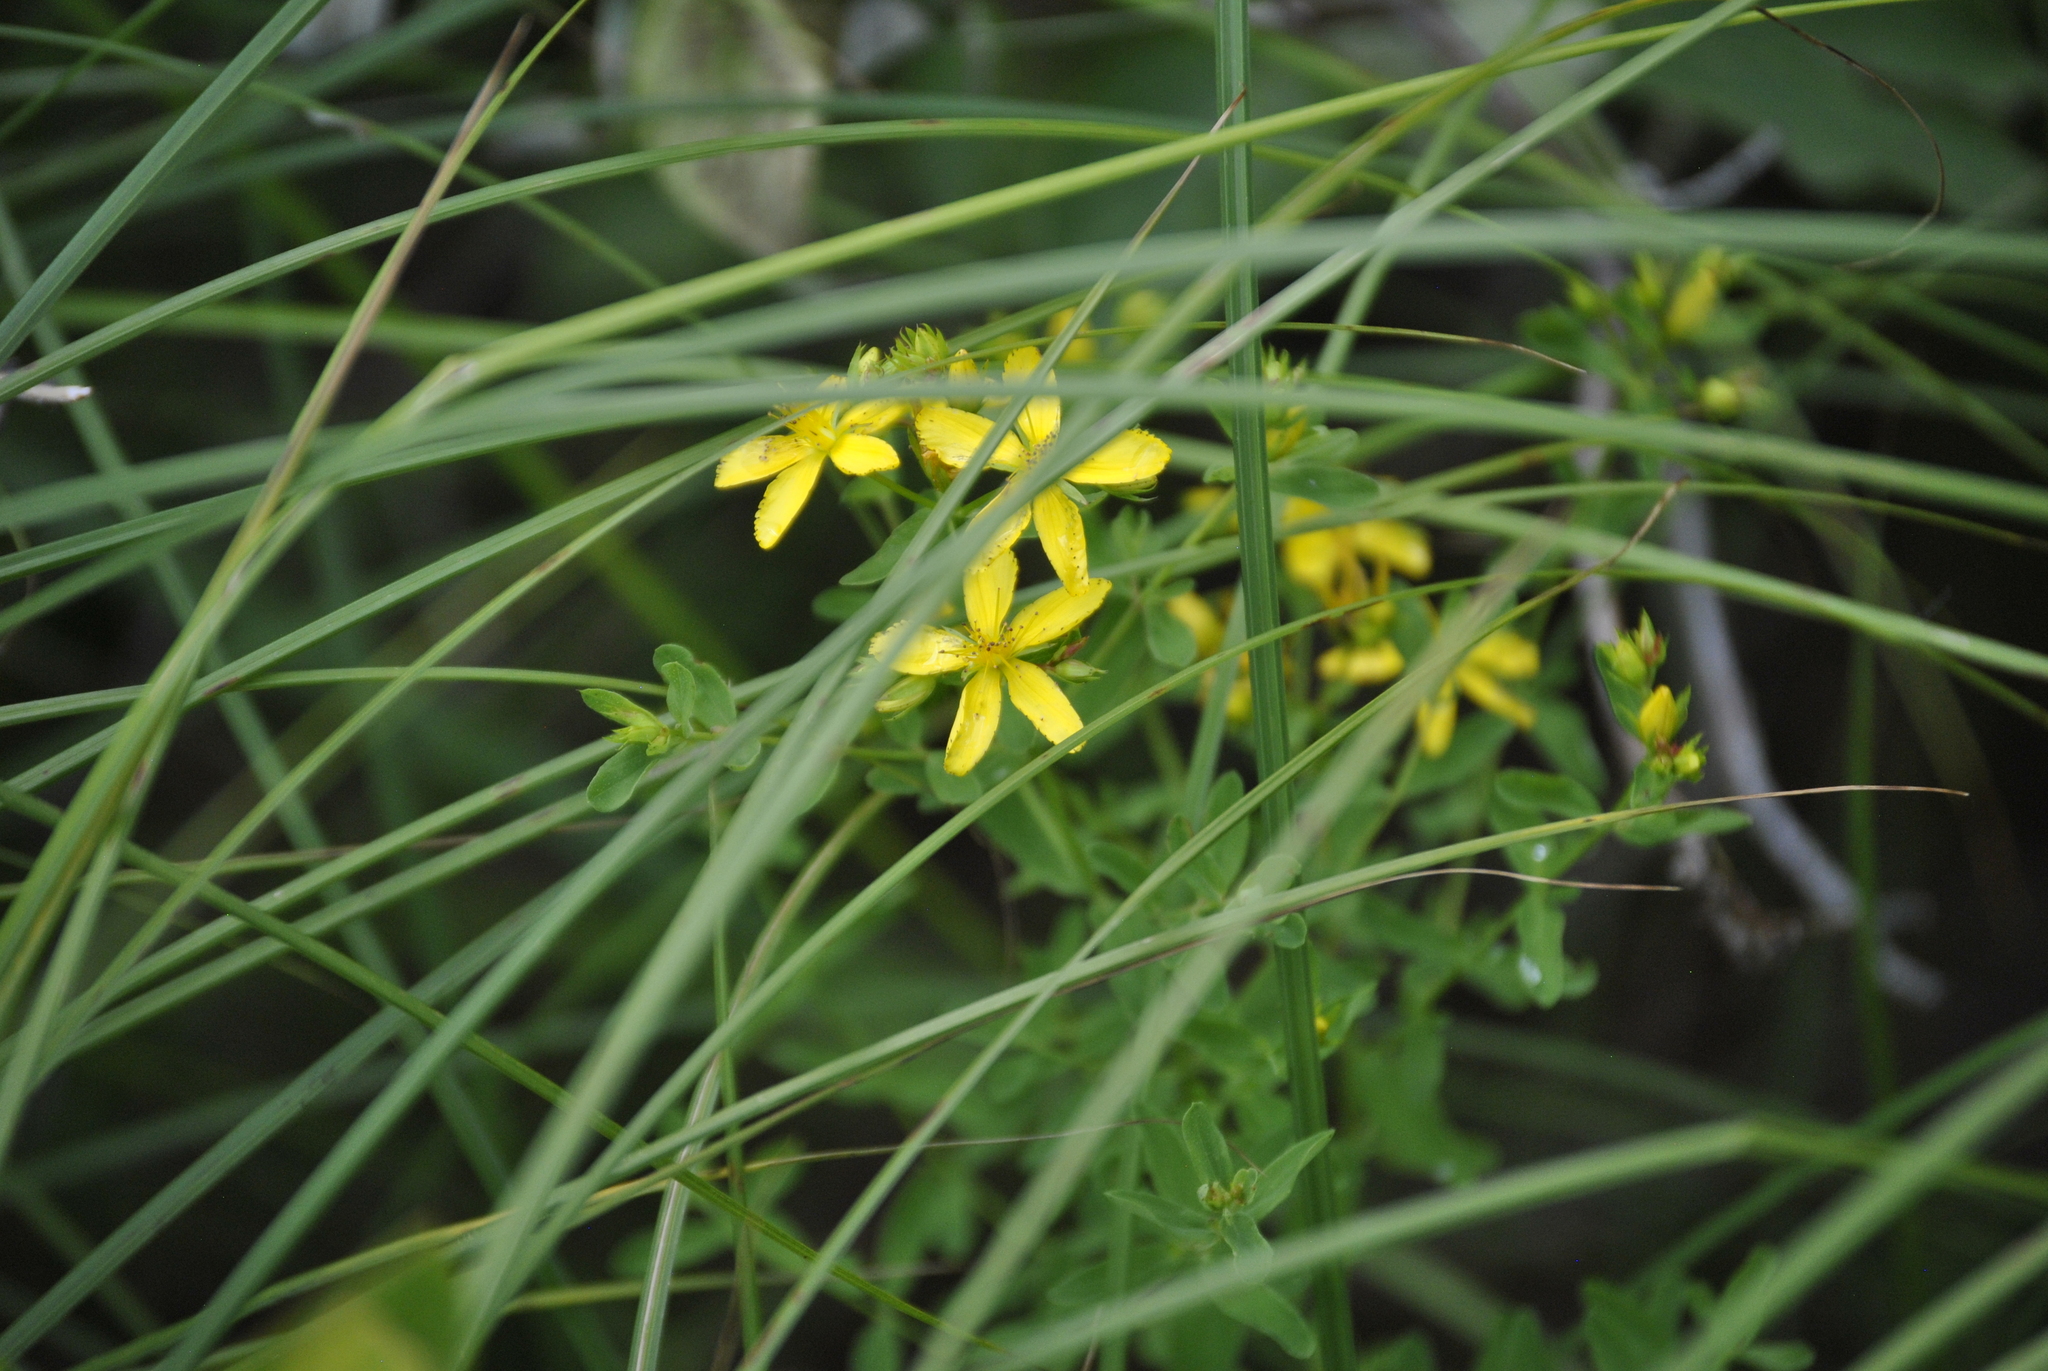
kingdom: Plantae
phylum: Tracheophyta
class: Magnoliopsida
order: Malpighiales
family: Hypericaceae
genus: Hypericum
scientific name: Hypericum perforatum
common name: Common st. johnswort
